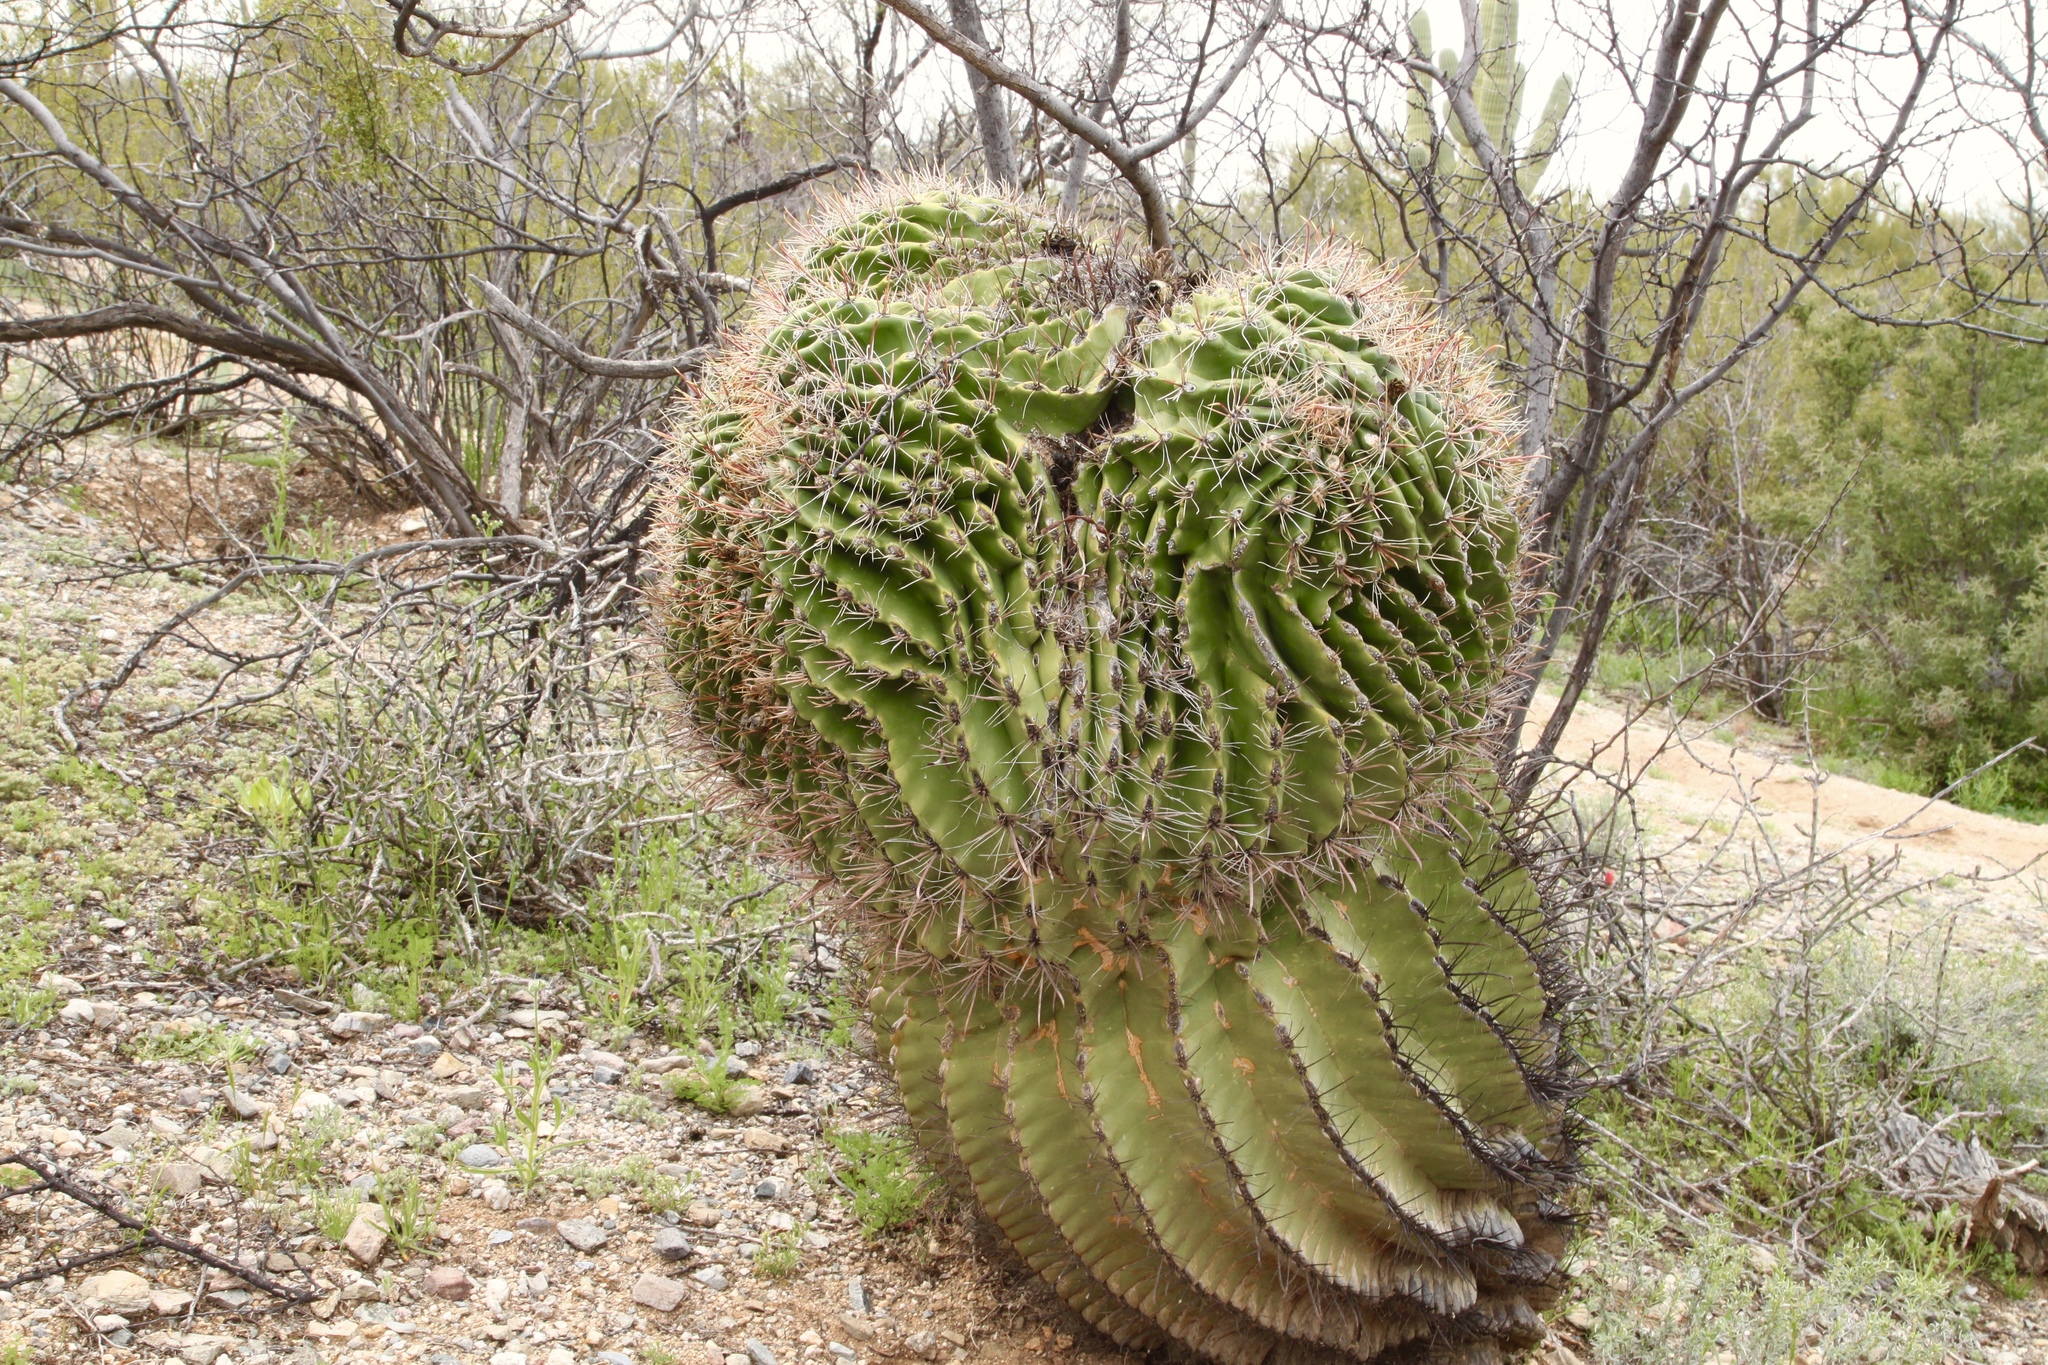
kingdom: Plantae
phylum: Tracheophyta
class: Magnoliopsida
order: Caryophyllales
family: Cactaceae
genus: Ferocactus
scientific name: Ferocactus wislizeni
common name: Candy barrel cactus
